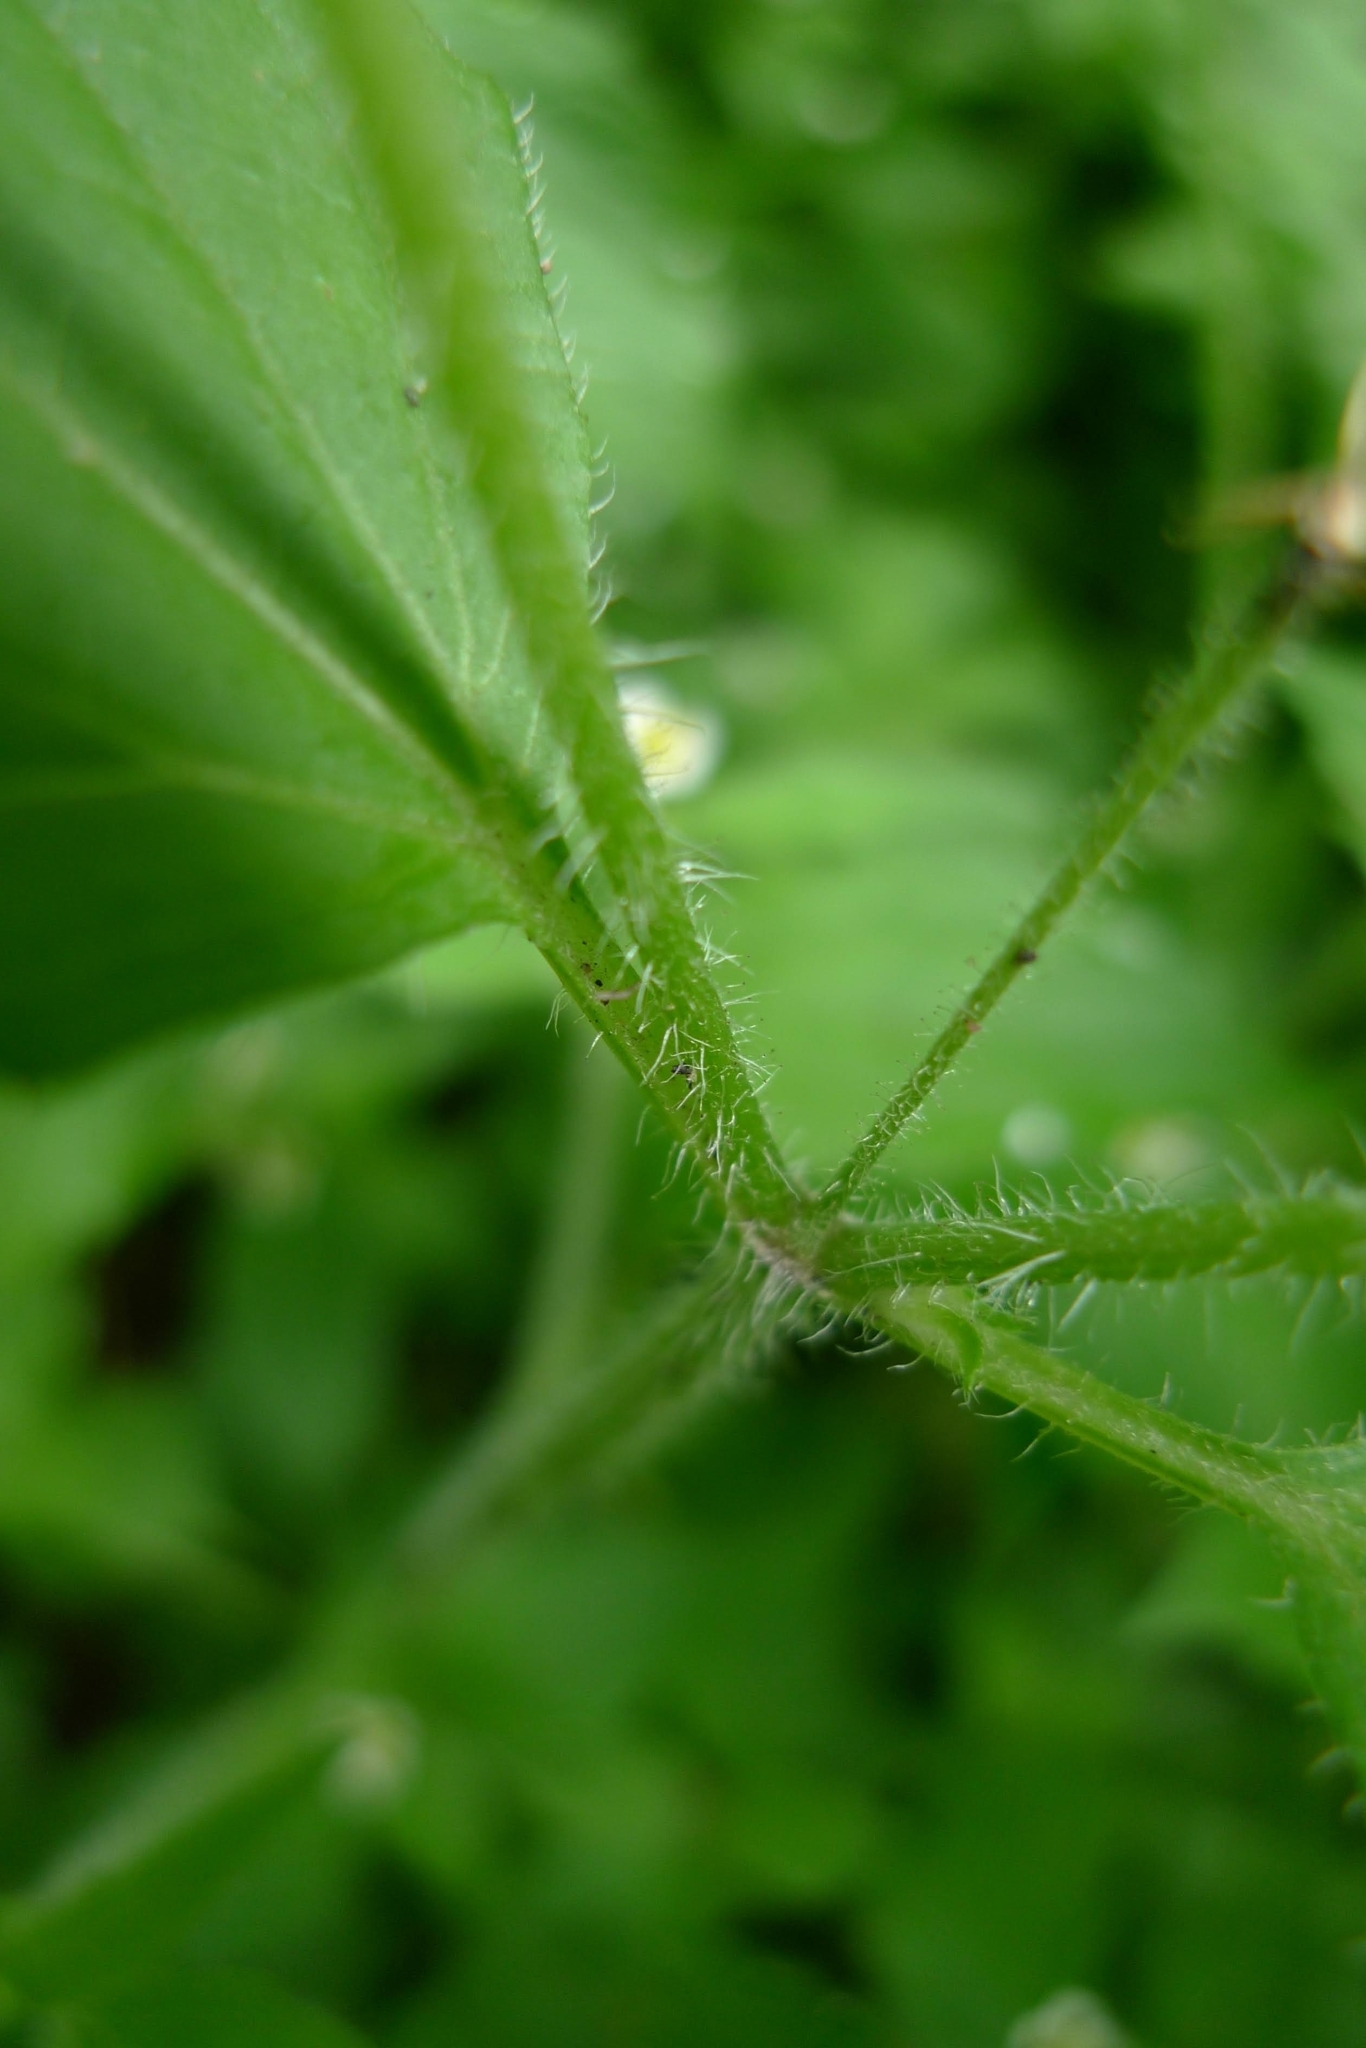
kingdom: Plantae
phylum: Tracheophyta
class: Magnoliopsida
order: Asterales
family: Asteraceae
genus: Galinsoga
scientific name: Galinsoga quadriradiata
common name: Shaggy soldier
